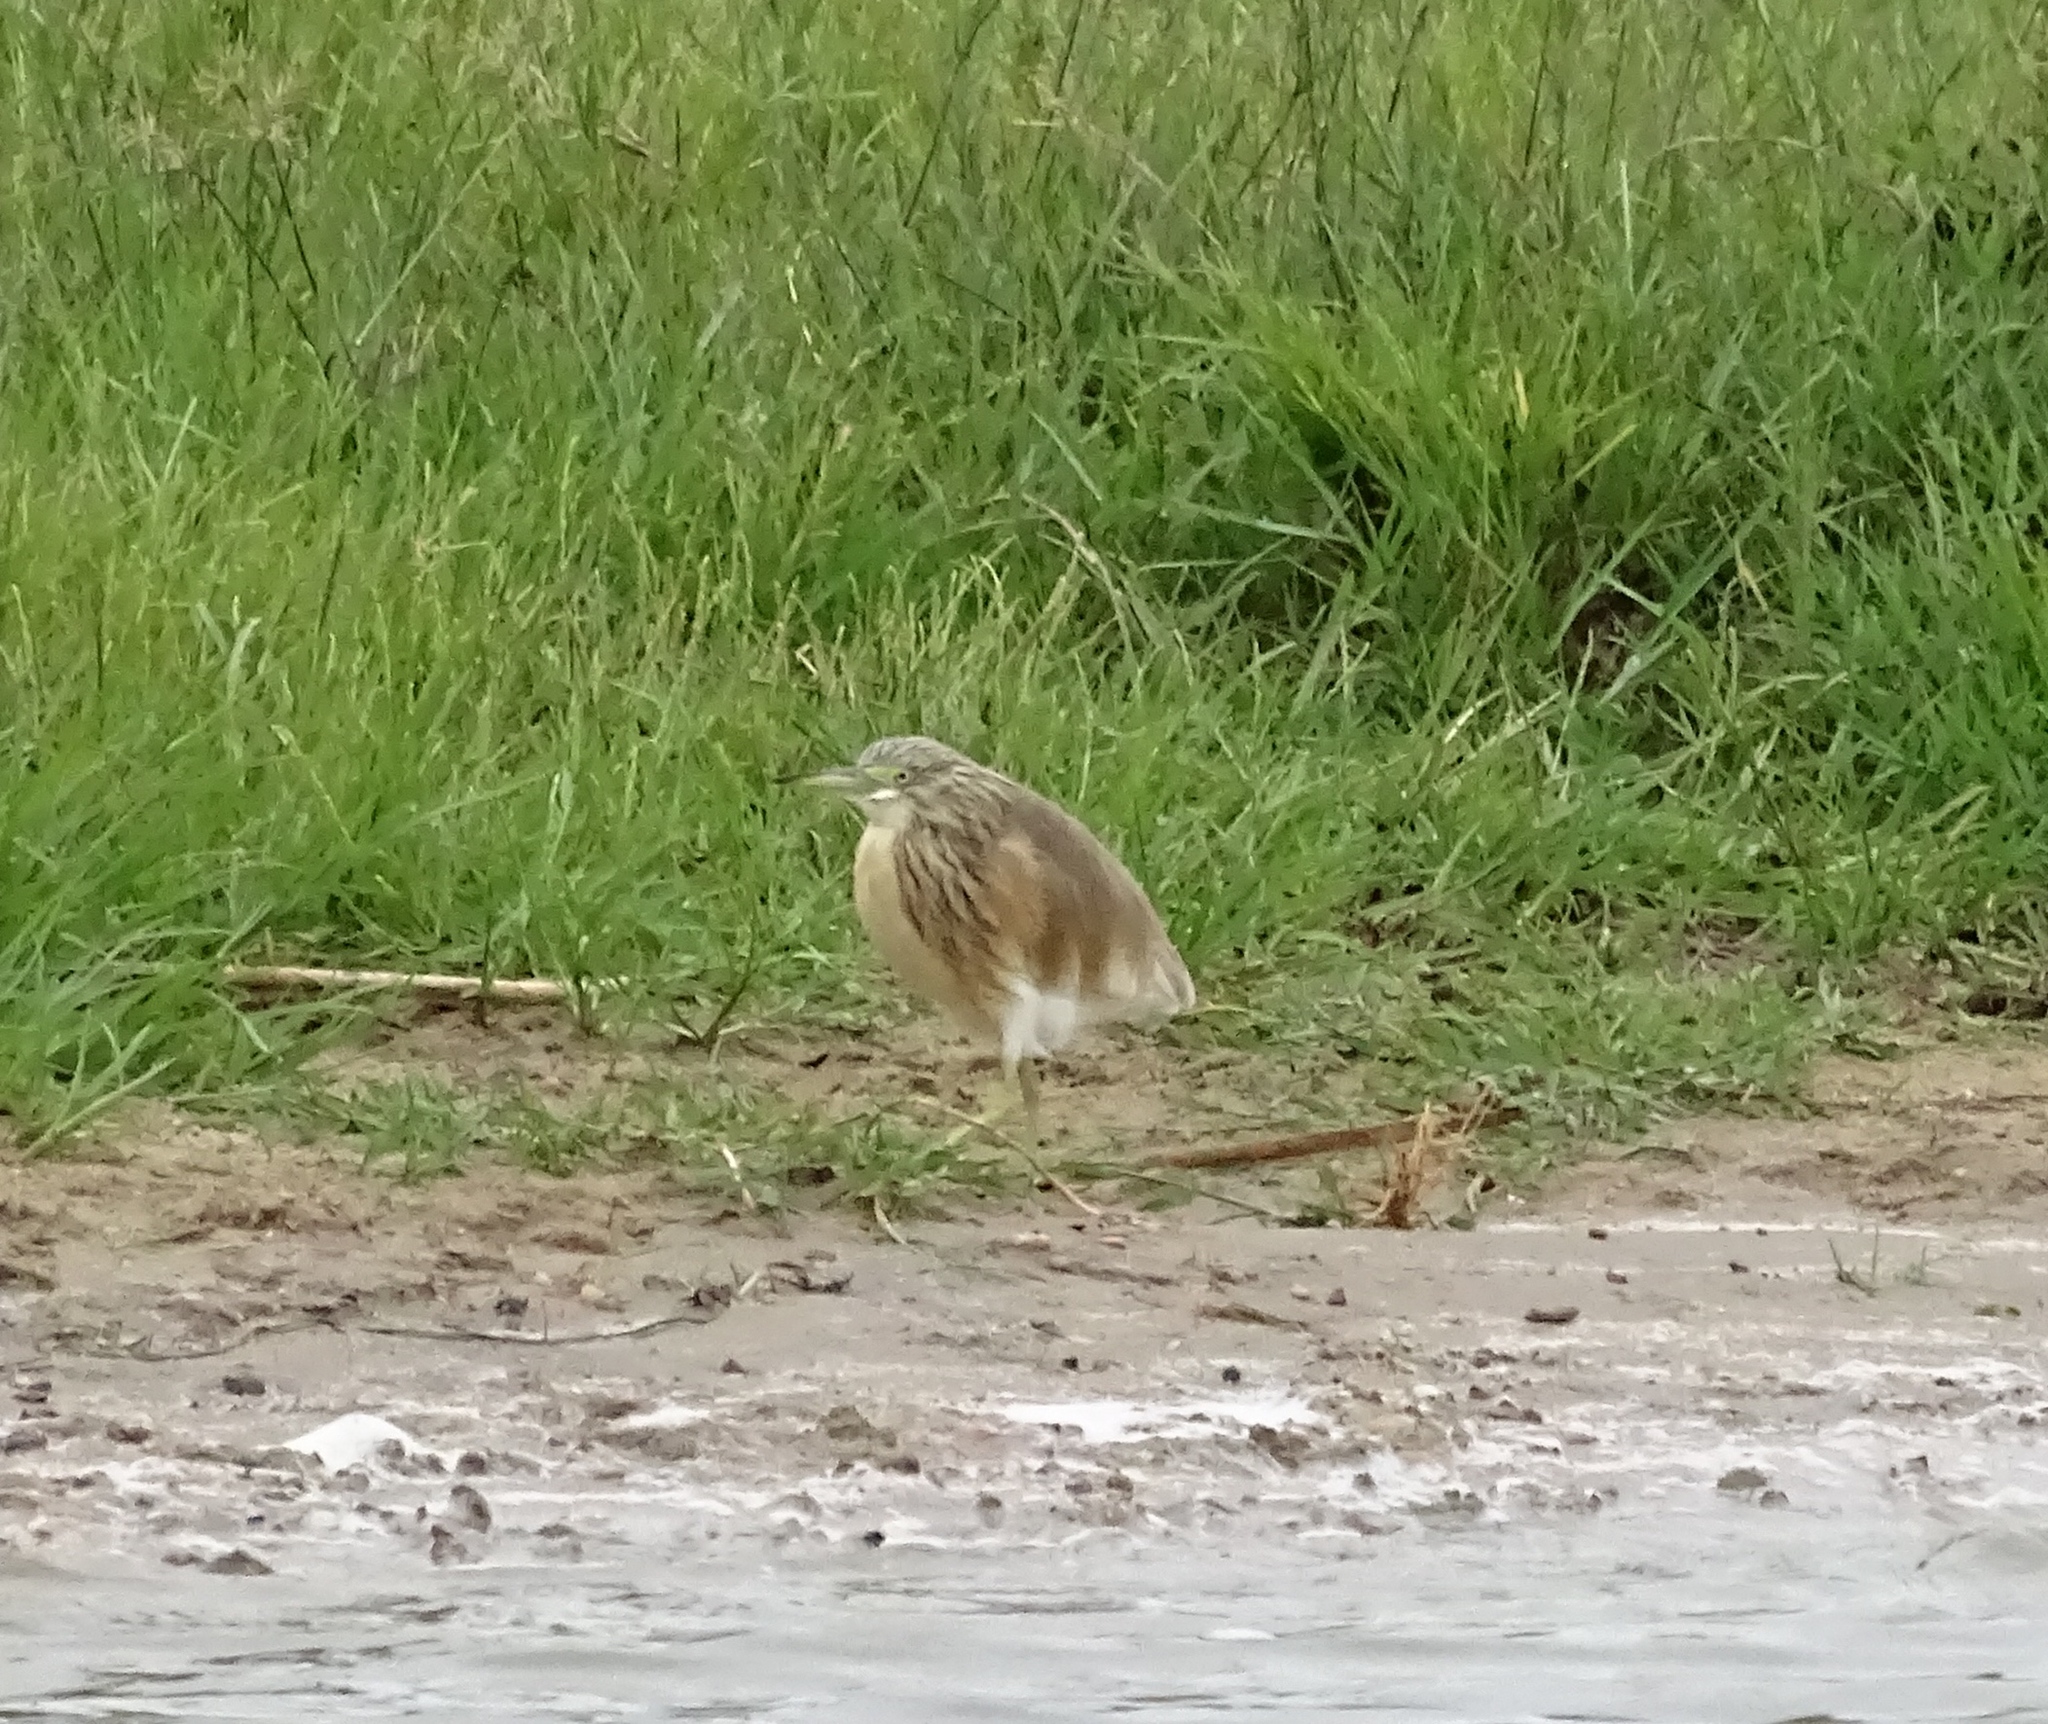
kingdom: Animalia
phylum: Chordata
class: Aves
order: Pelecaniformes
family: Ardeidae
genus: Ardeola
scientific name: Ardeola ralloides
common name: Squacco heron
